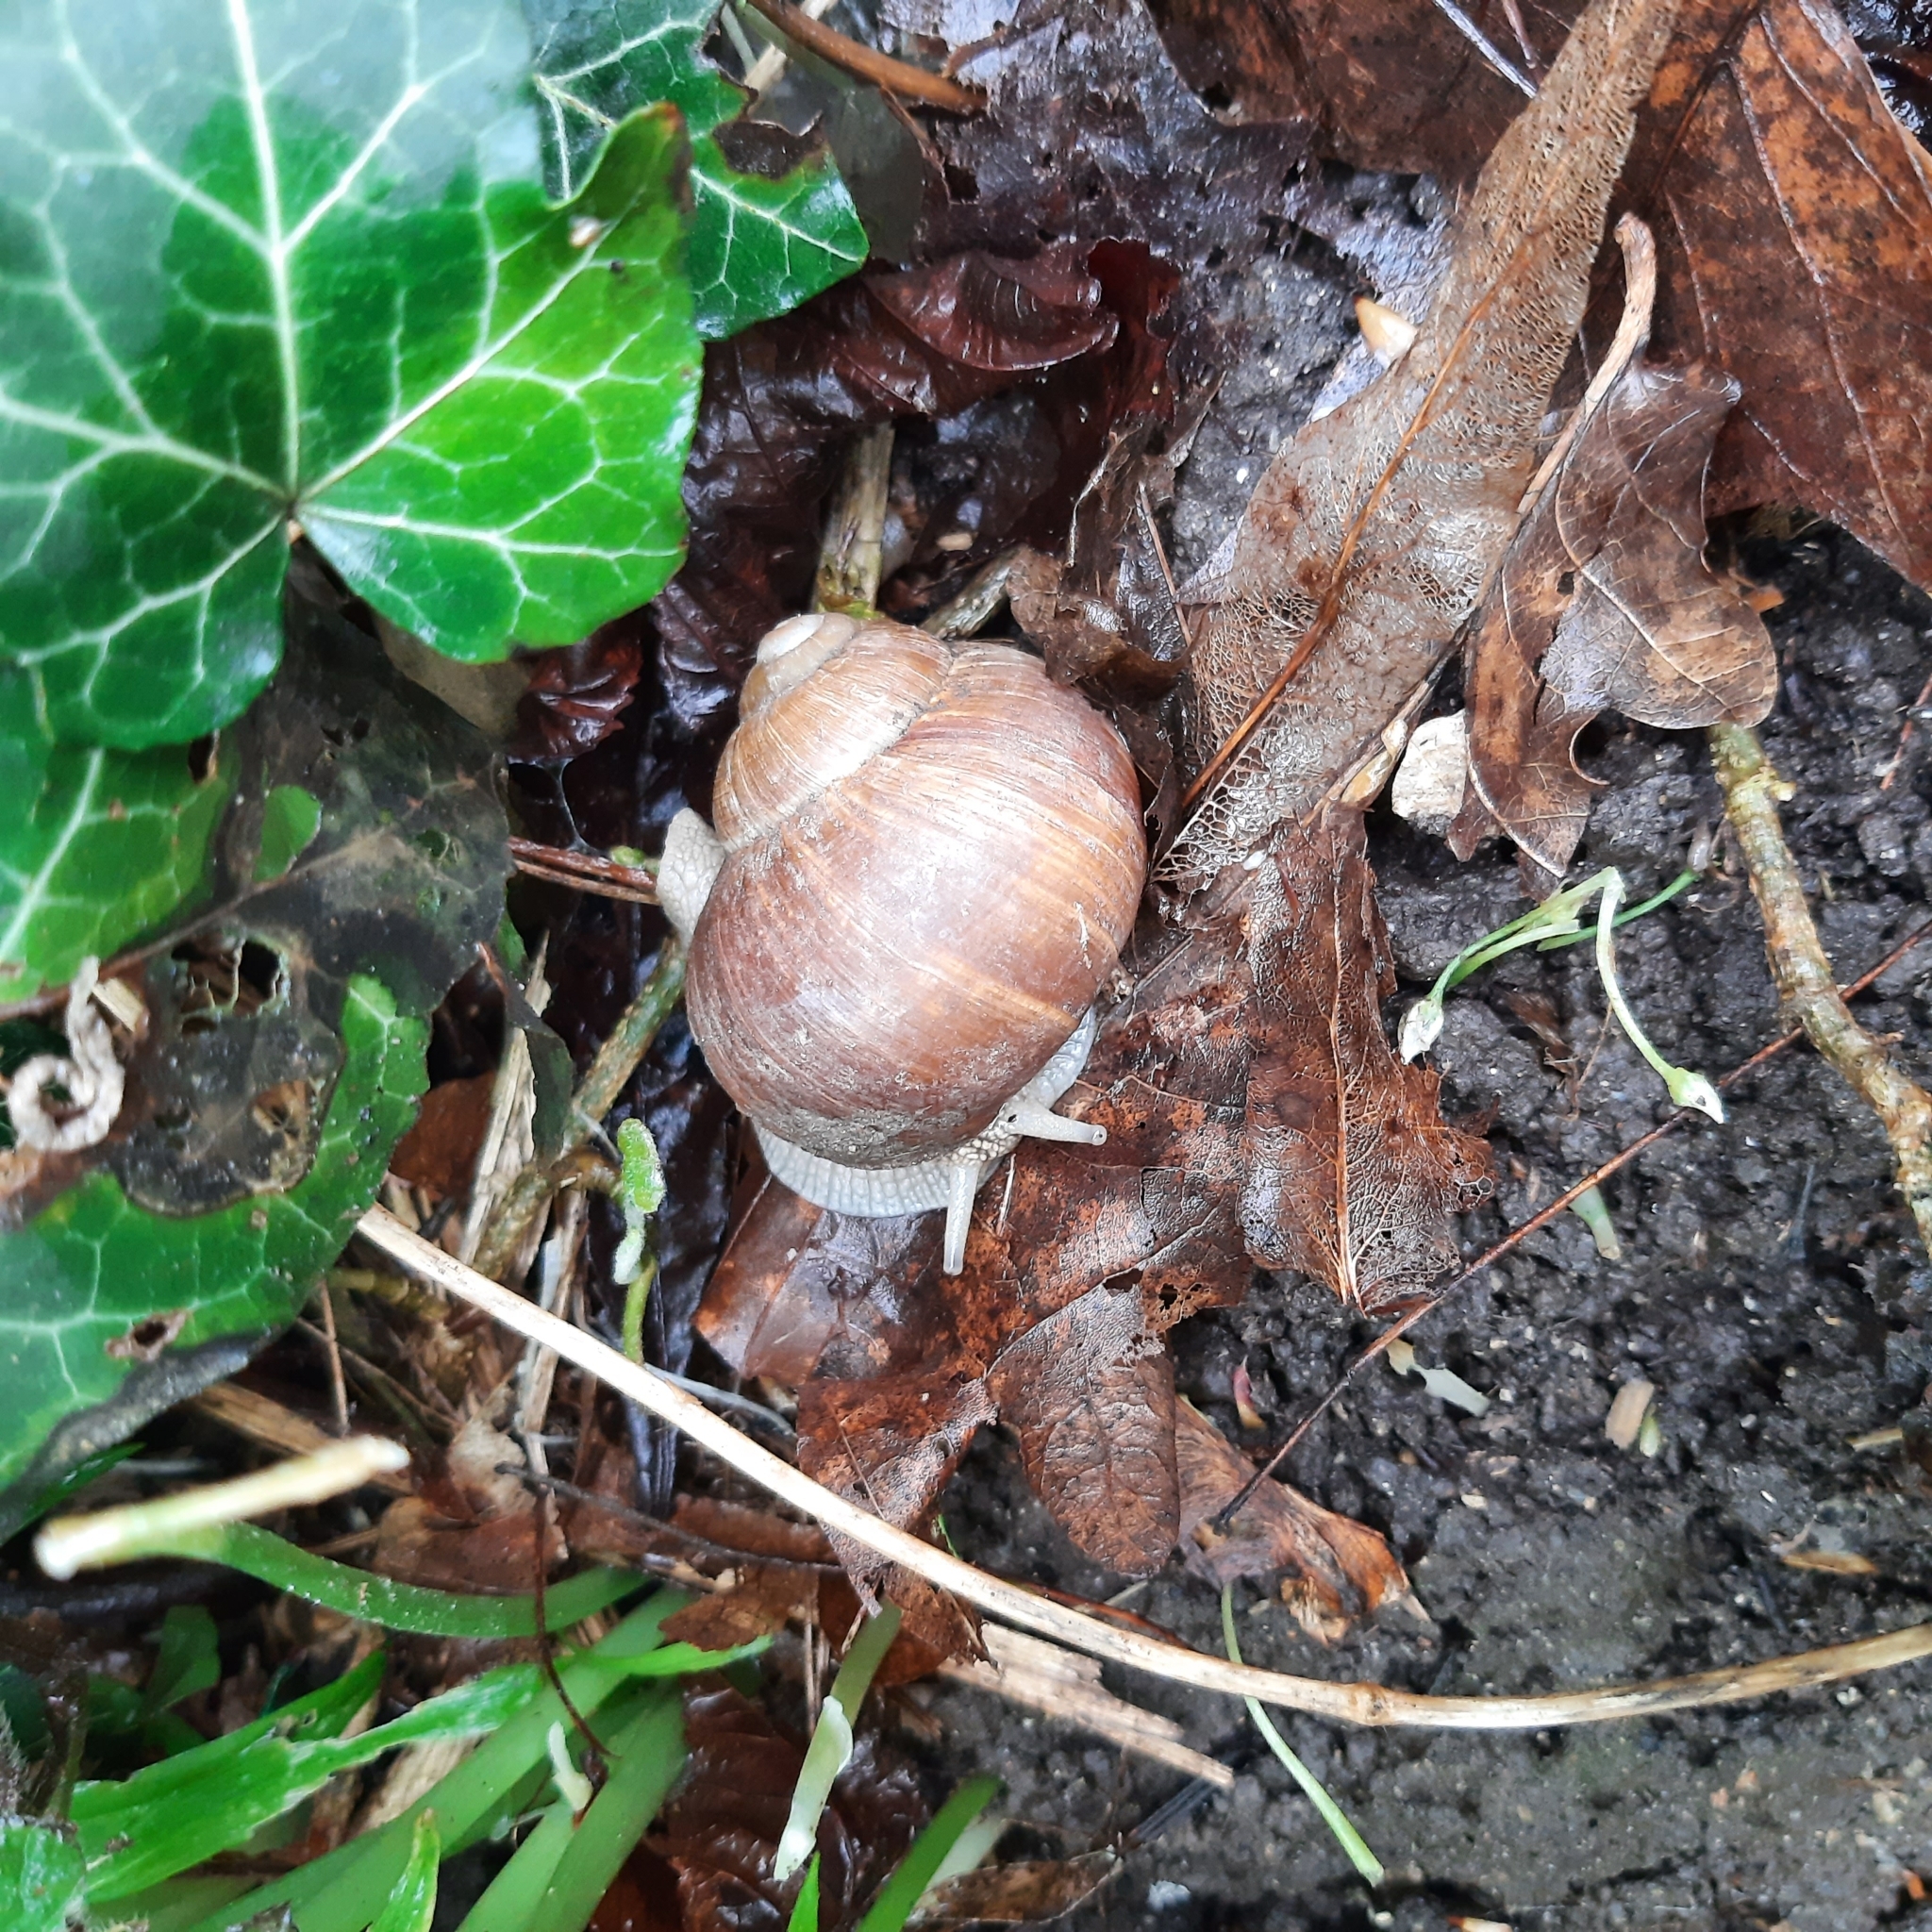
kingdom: Animalia
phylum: Mollusca
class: Gastropoda
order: Stylommatophora
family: Helicidae
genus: Helix
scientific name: Helix pomatia
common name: Roman snail
